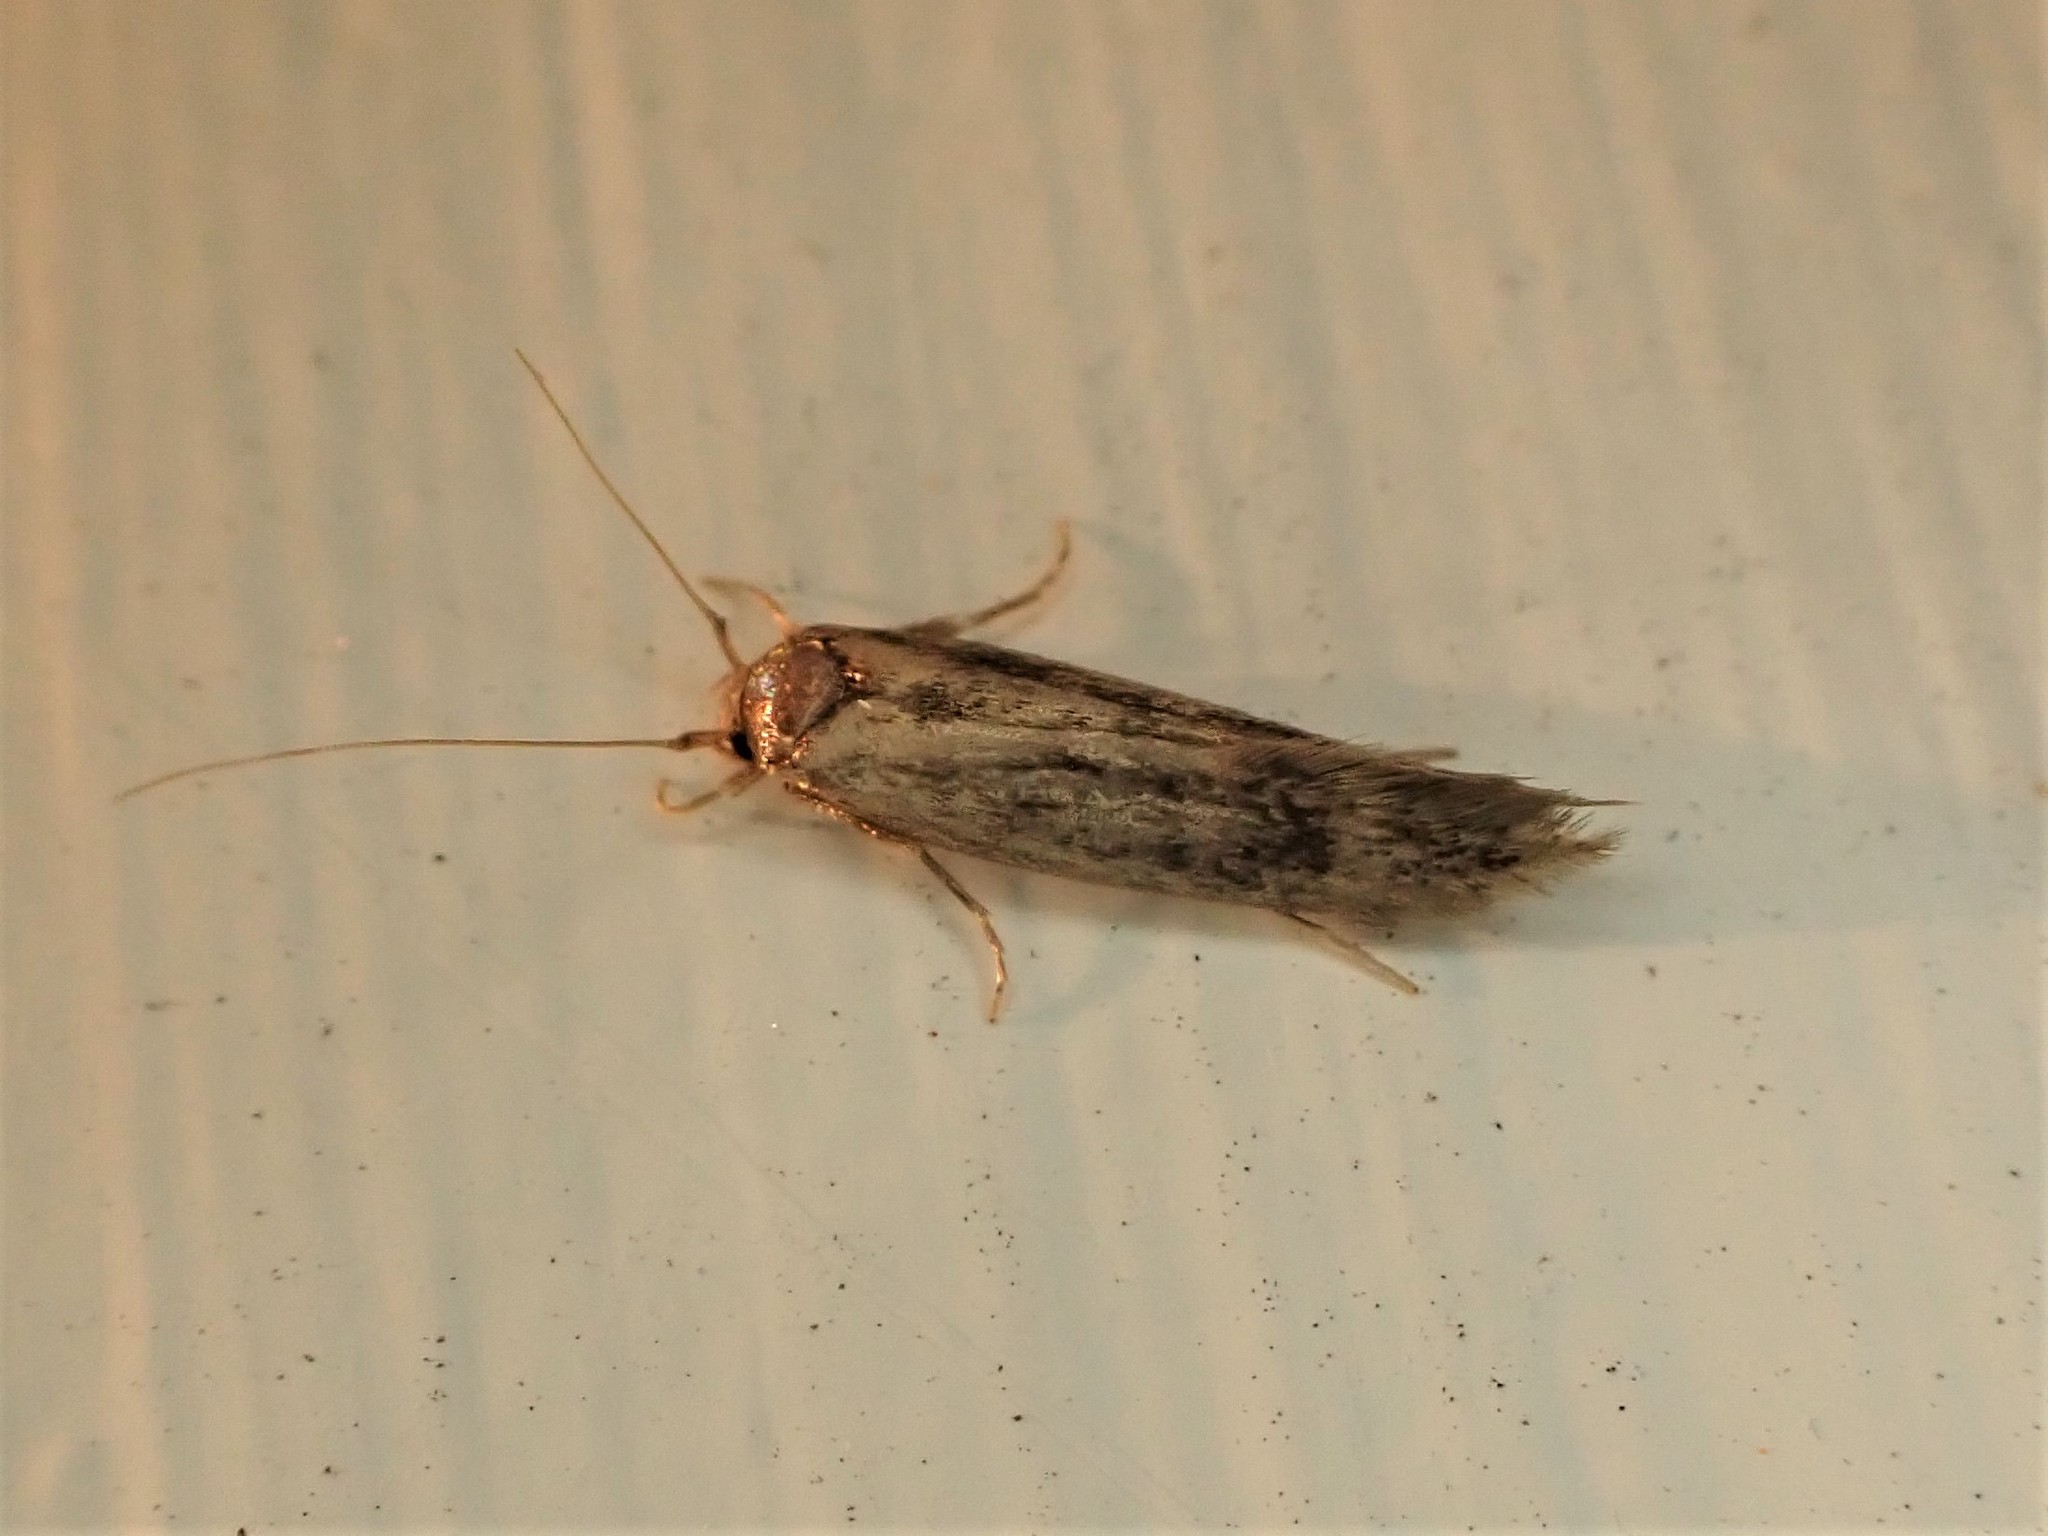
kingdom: Animalia
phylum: Arthropoda
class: Insecta
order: Lepidoptera
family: Tineidae
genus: Opogona
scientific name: Opogona omoscopa
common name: Moth
